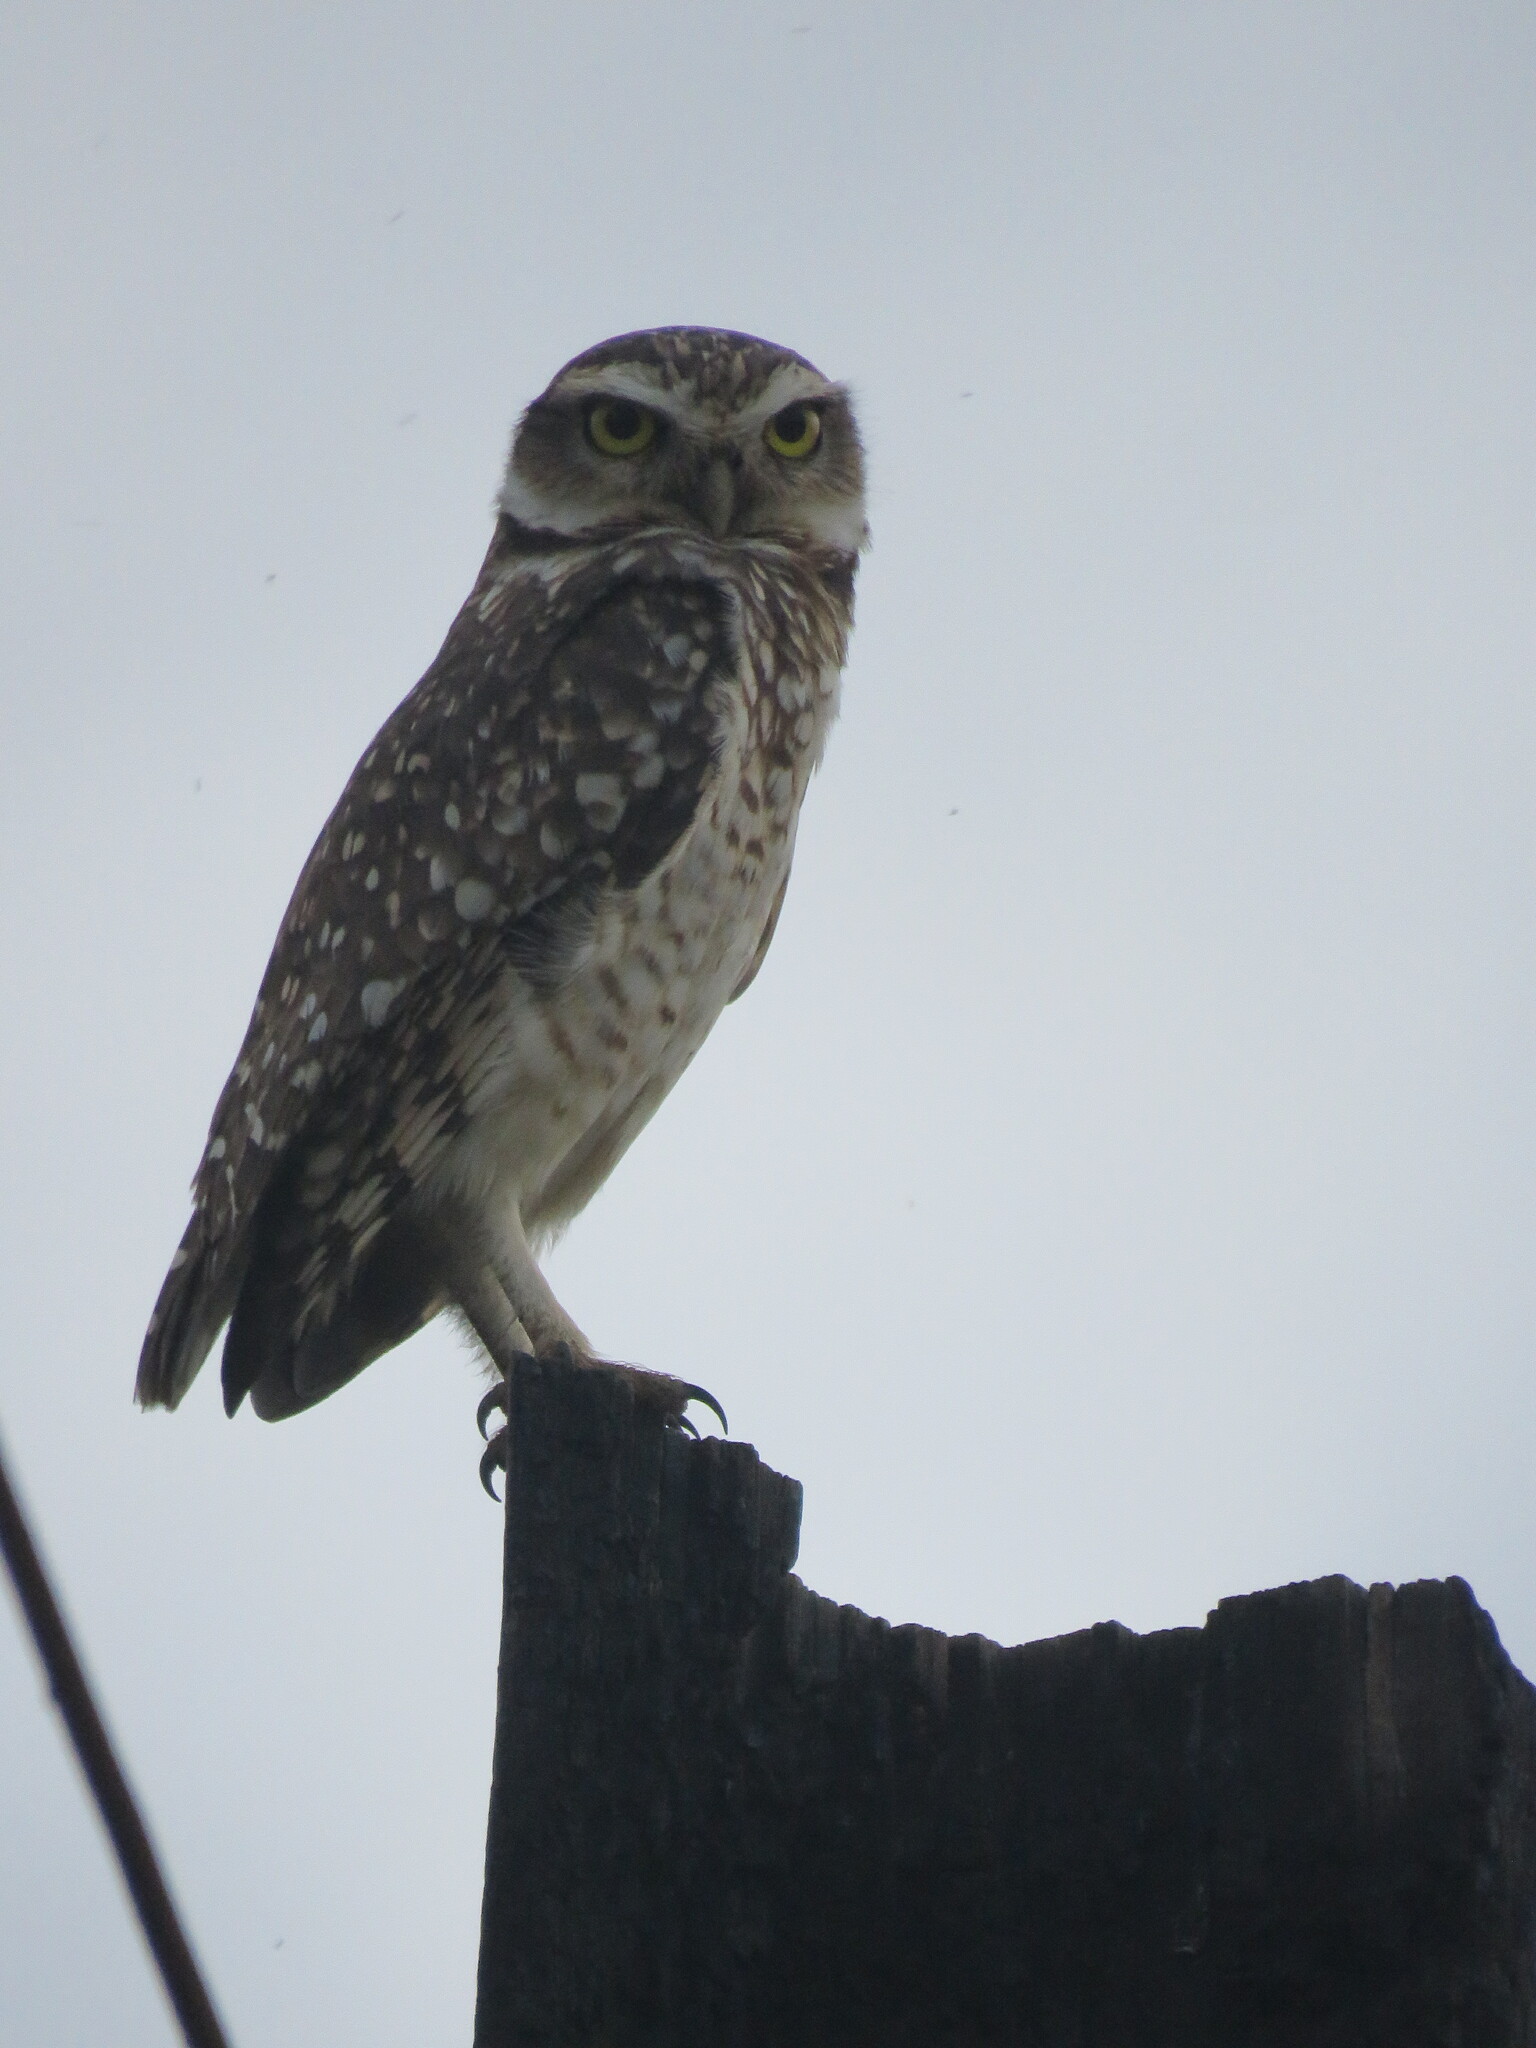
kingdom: Animalia
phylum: Chordata
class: Aves
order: Strigiformes
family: Strigidae
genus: Athene
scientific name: Athene cunicularia
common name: Burrowing owl
